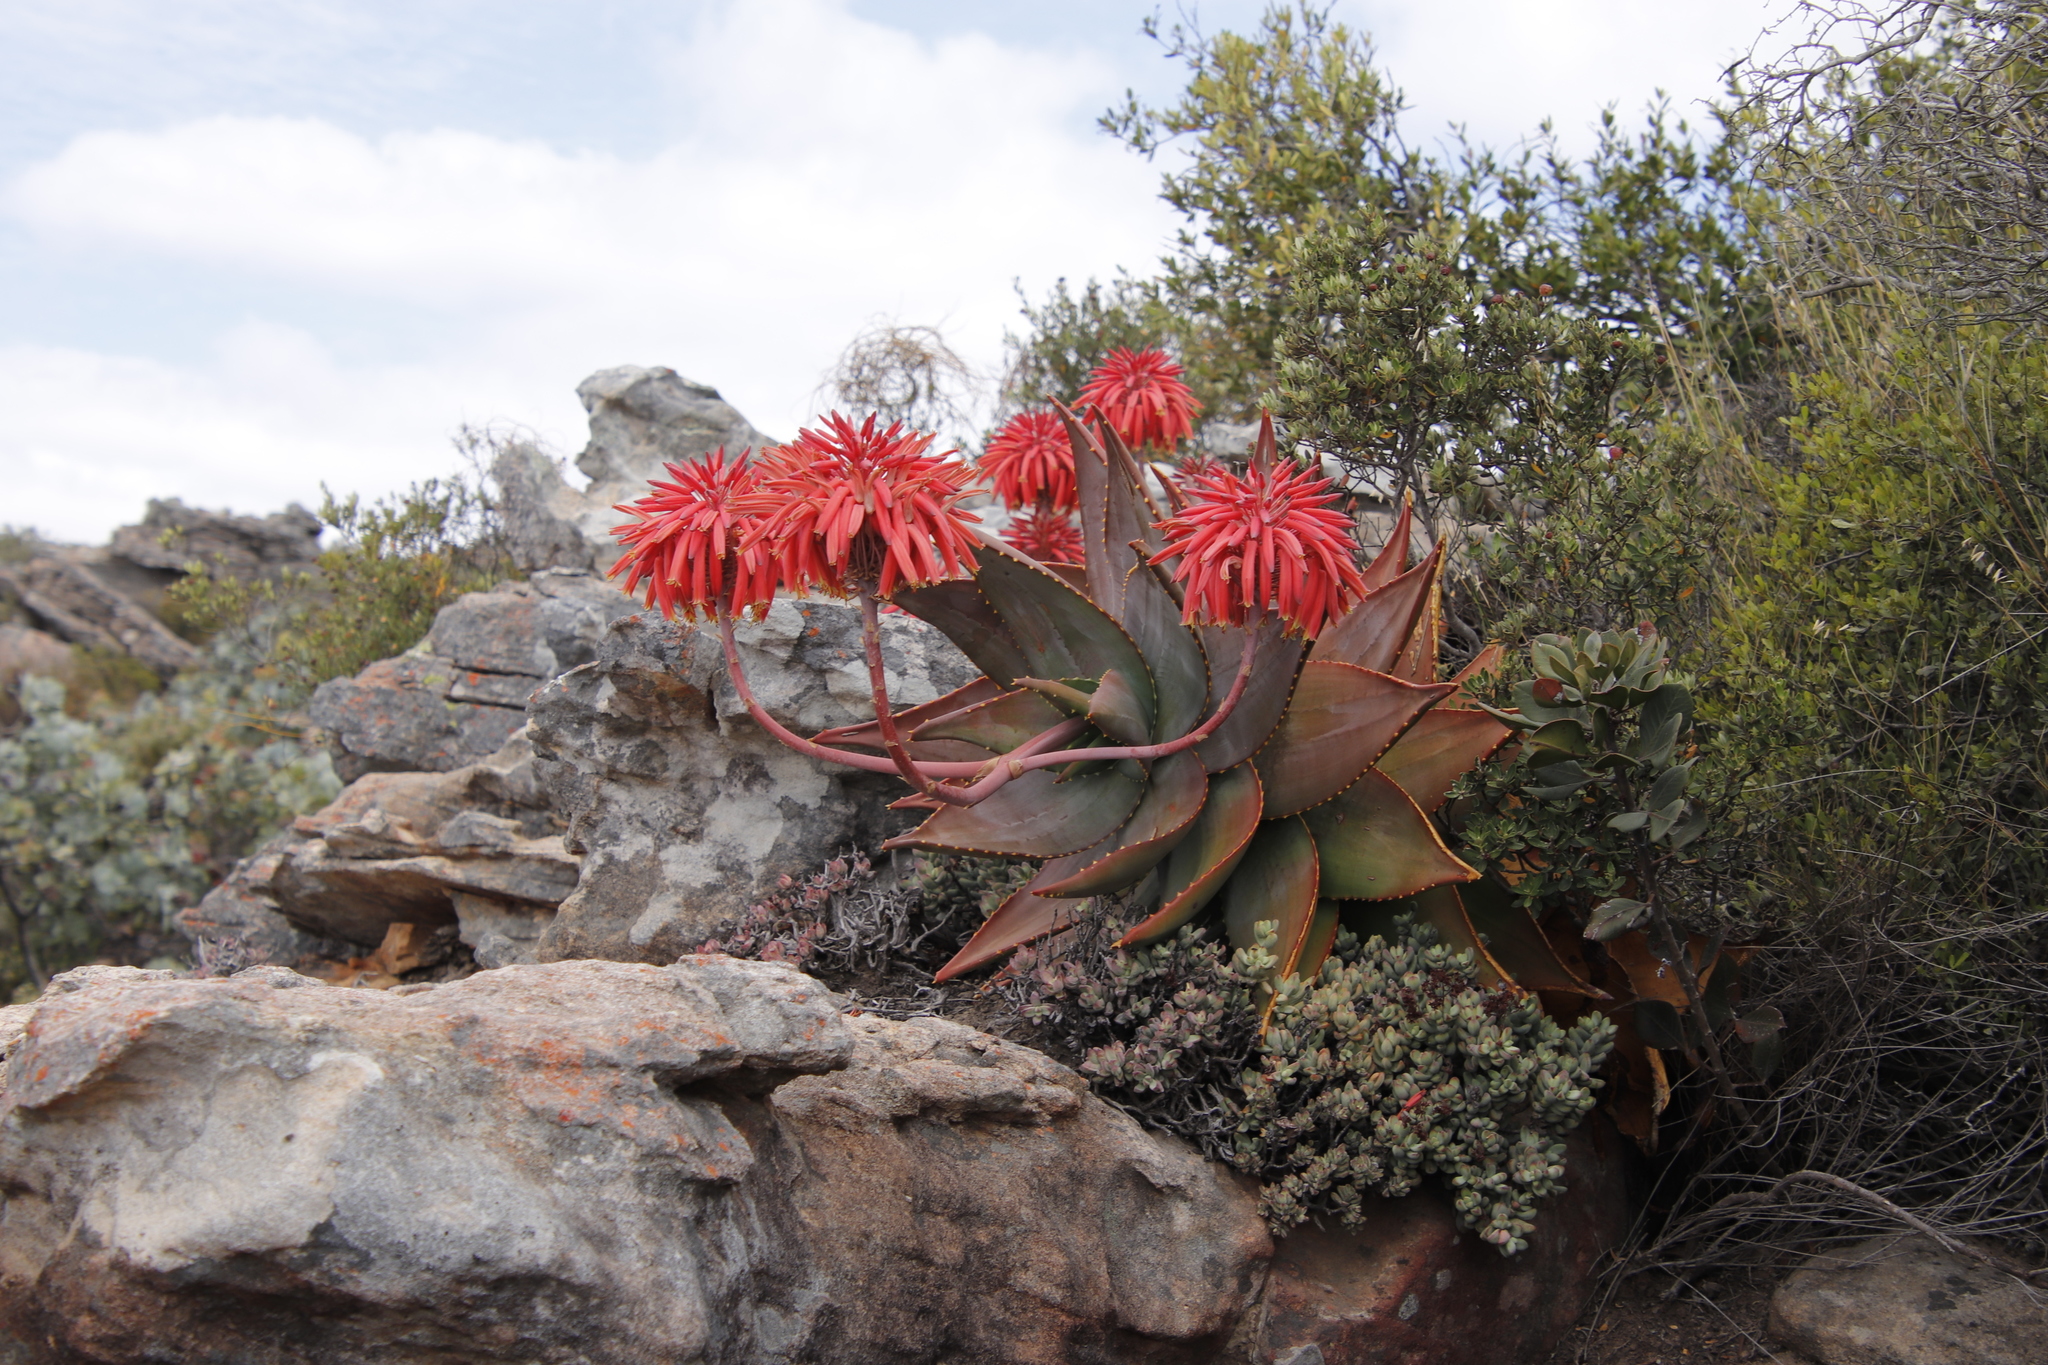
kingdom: Plantae
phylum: Tracheophyta
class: Liliopsida
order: Asparagales
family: Asphodelaceae
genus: Aloe
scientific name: Aloe perfoliata
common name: Mitra aloe
